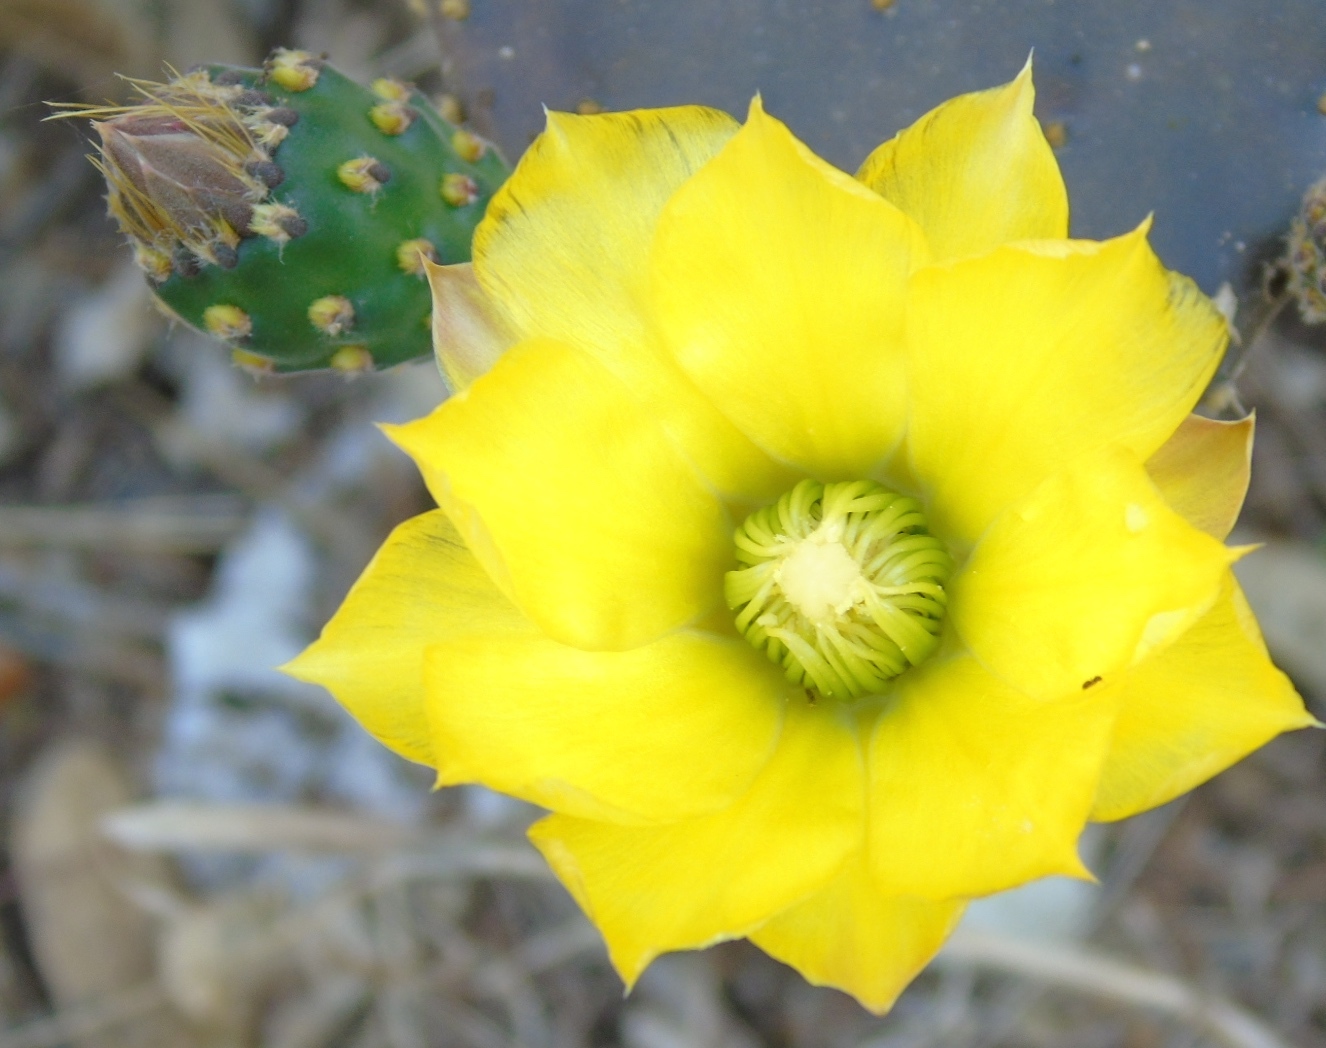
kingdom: Plantae
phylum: Tracheophyta
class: Magnoliopsida
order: Caryophyllales
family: Cactaceae
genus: Opuntia
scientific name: Opuntia
